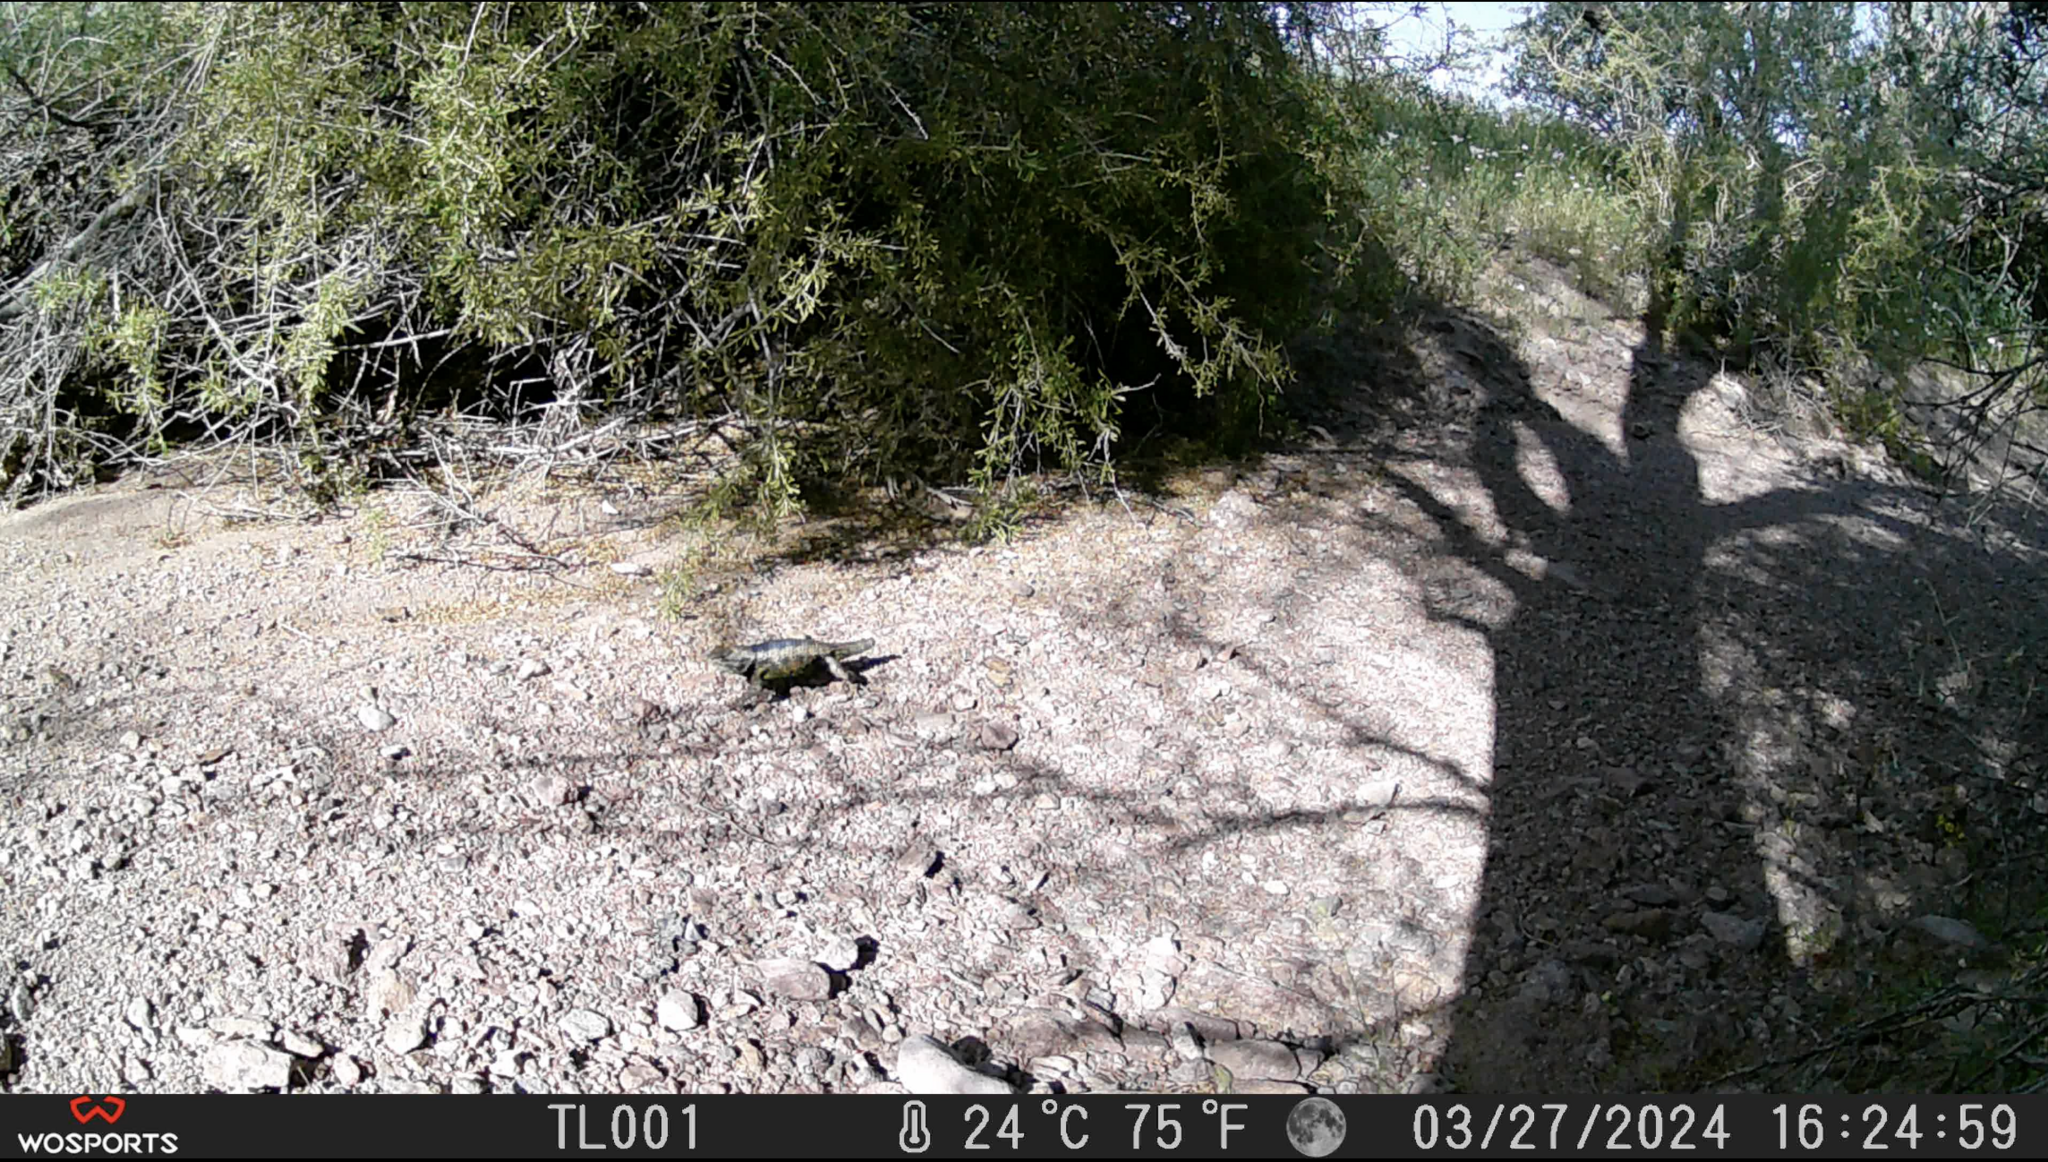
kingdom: Animalia
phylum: Chordata
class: Squamata
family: Phrynosomatidae
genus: Sceloporus
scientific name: Sceloporus magister
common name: Desert spiny lizard
